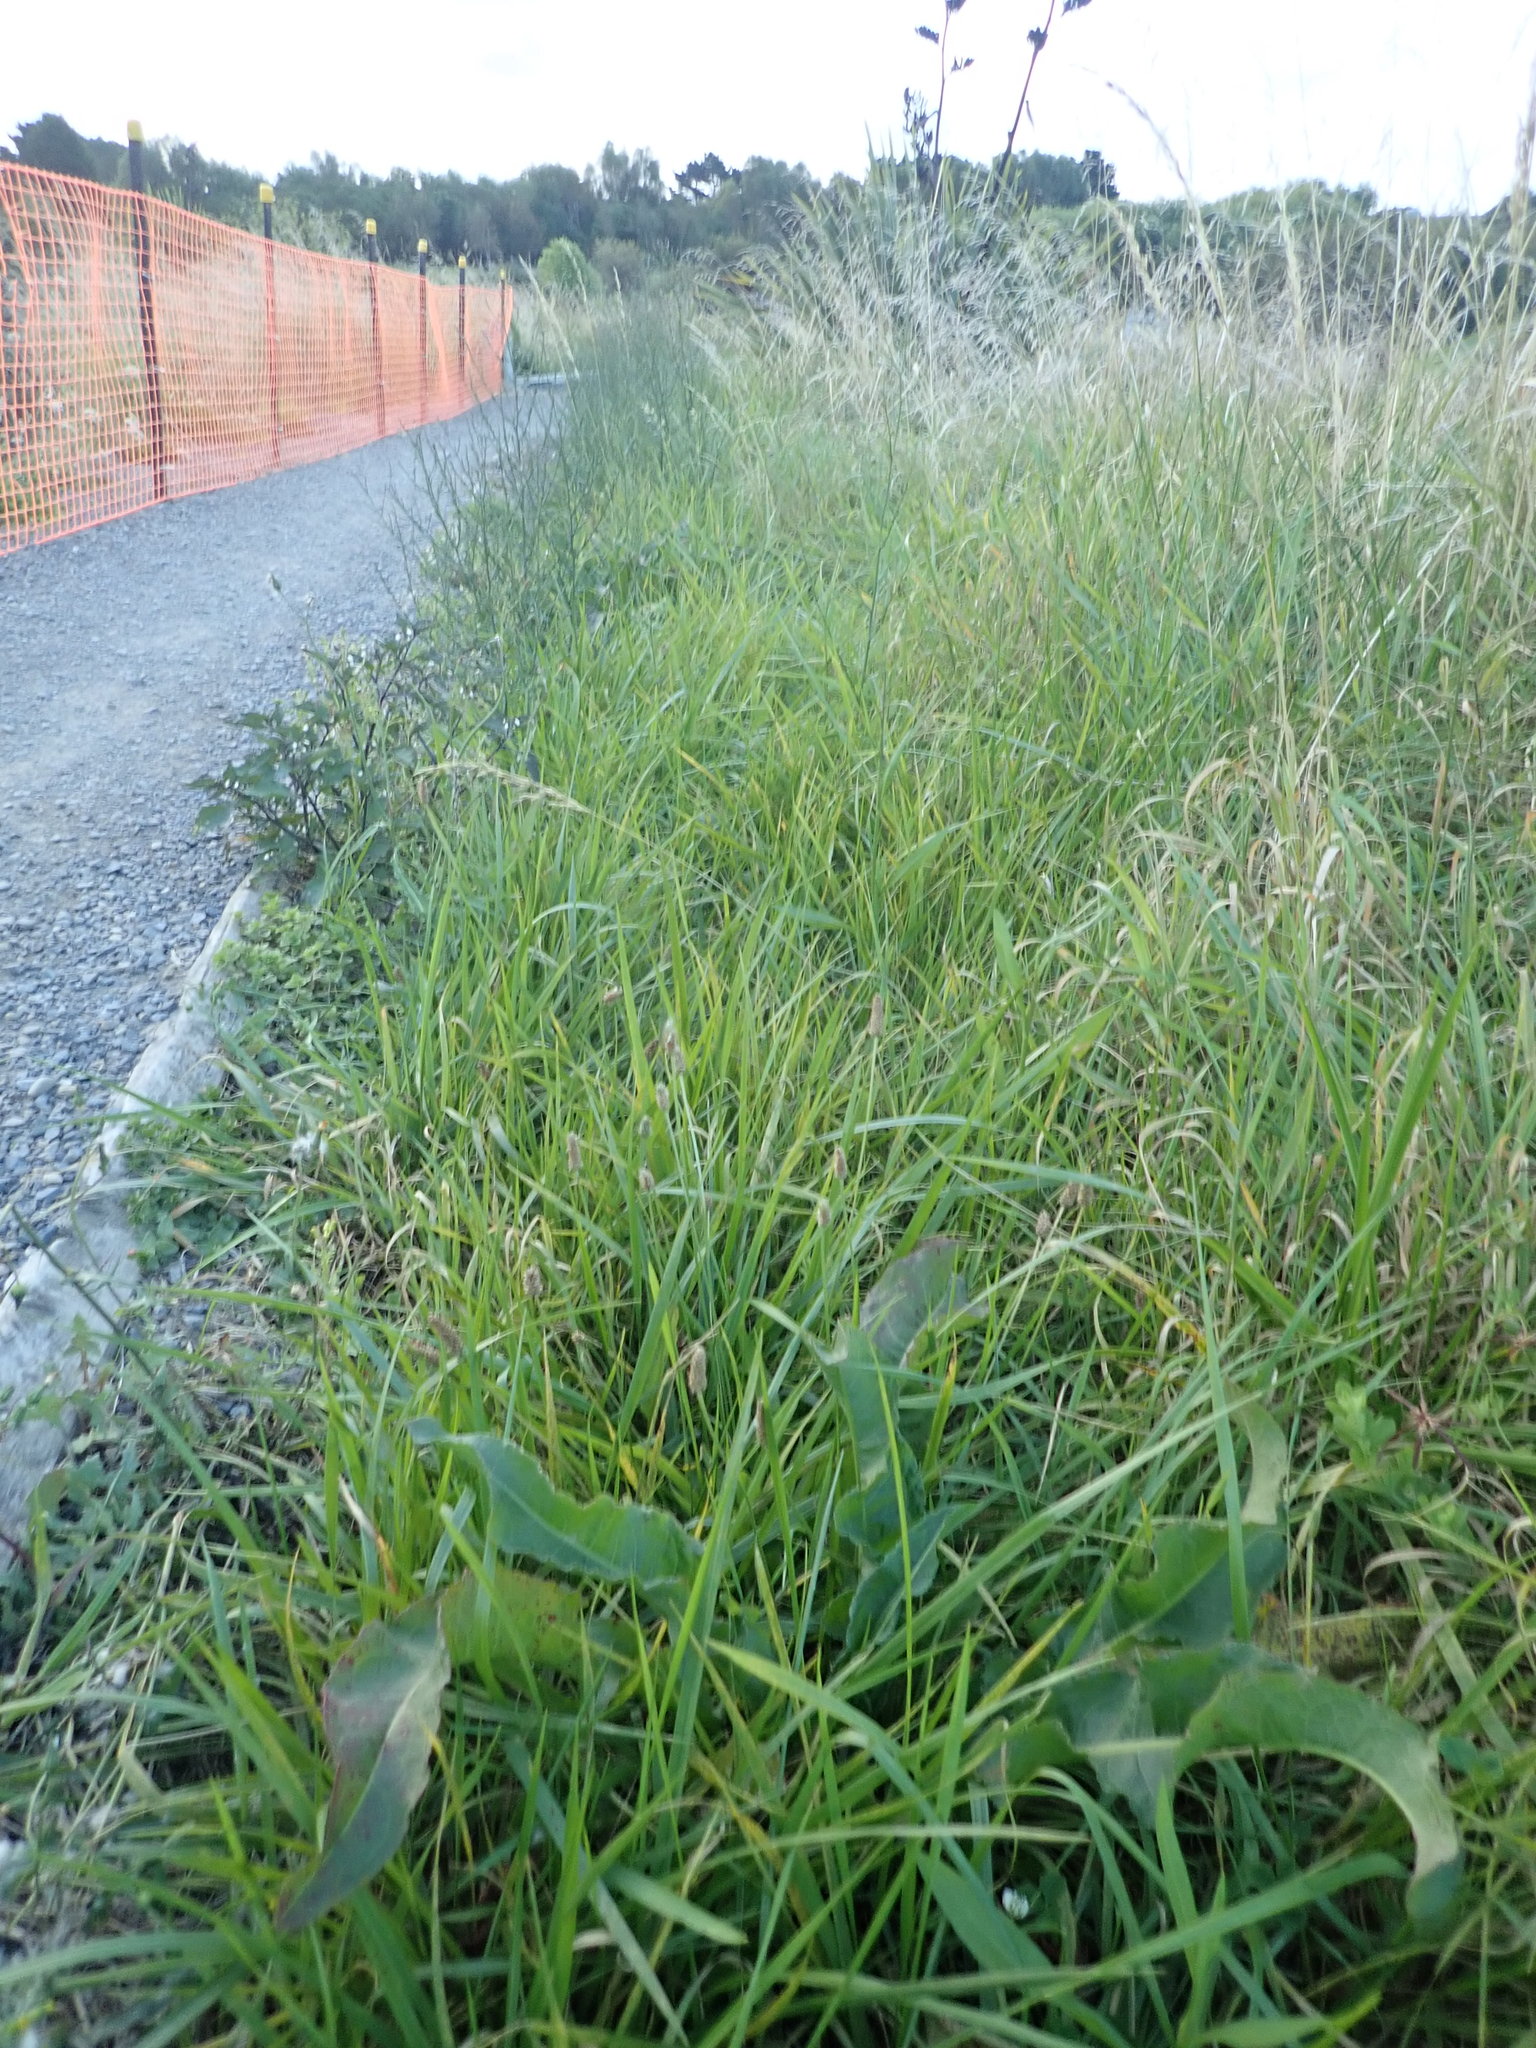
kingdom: Plantae
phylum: Tracheophyta
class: Magnoliopsida
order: Lamiales
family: Plantaginaceae
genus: Plantago
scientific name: Plantago lanceolata
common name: Ribwort plantain
